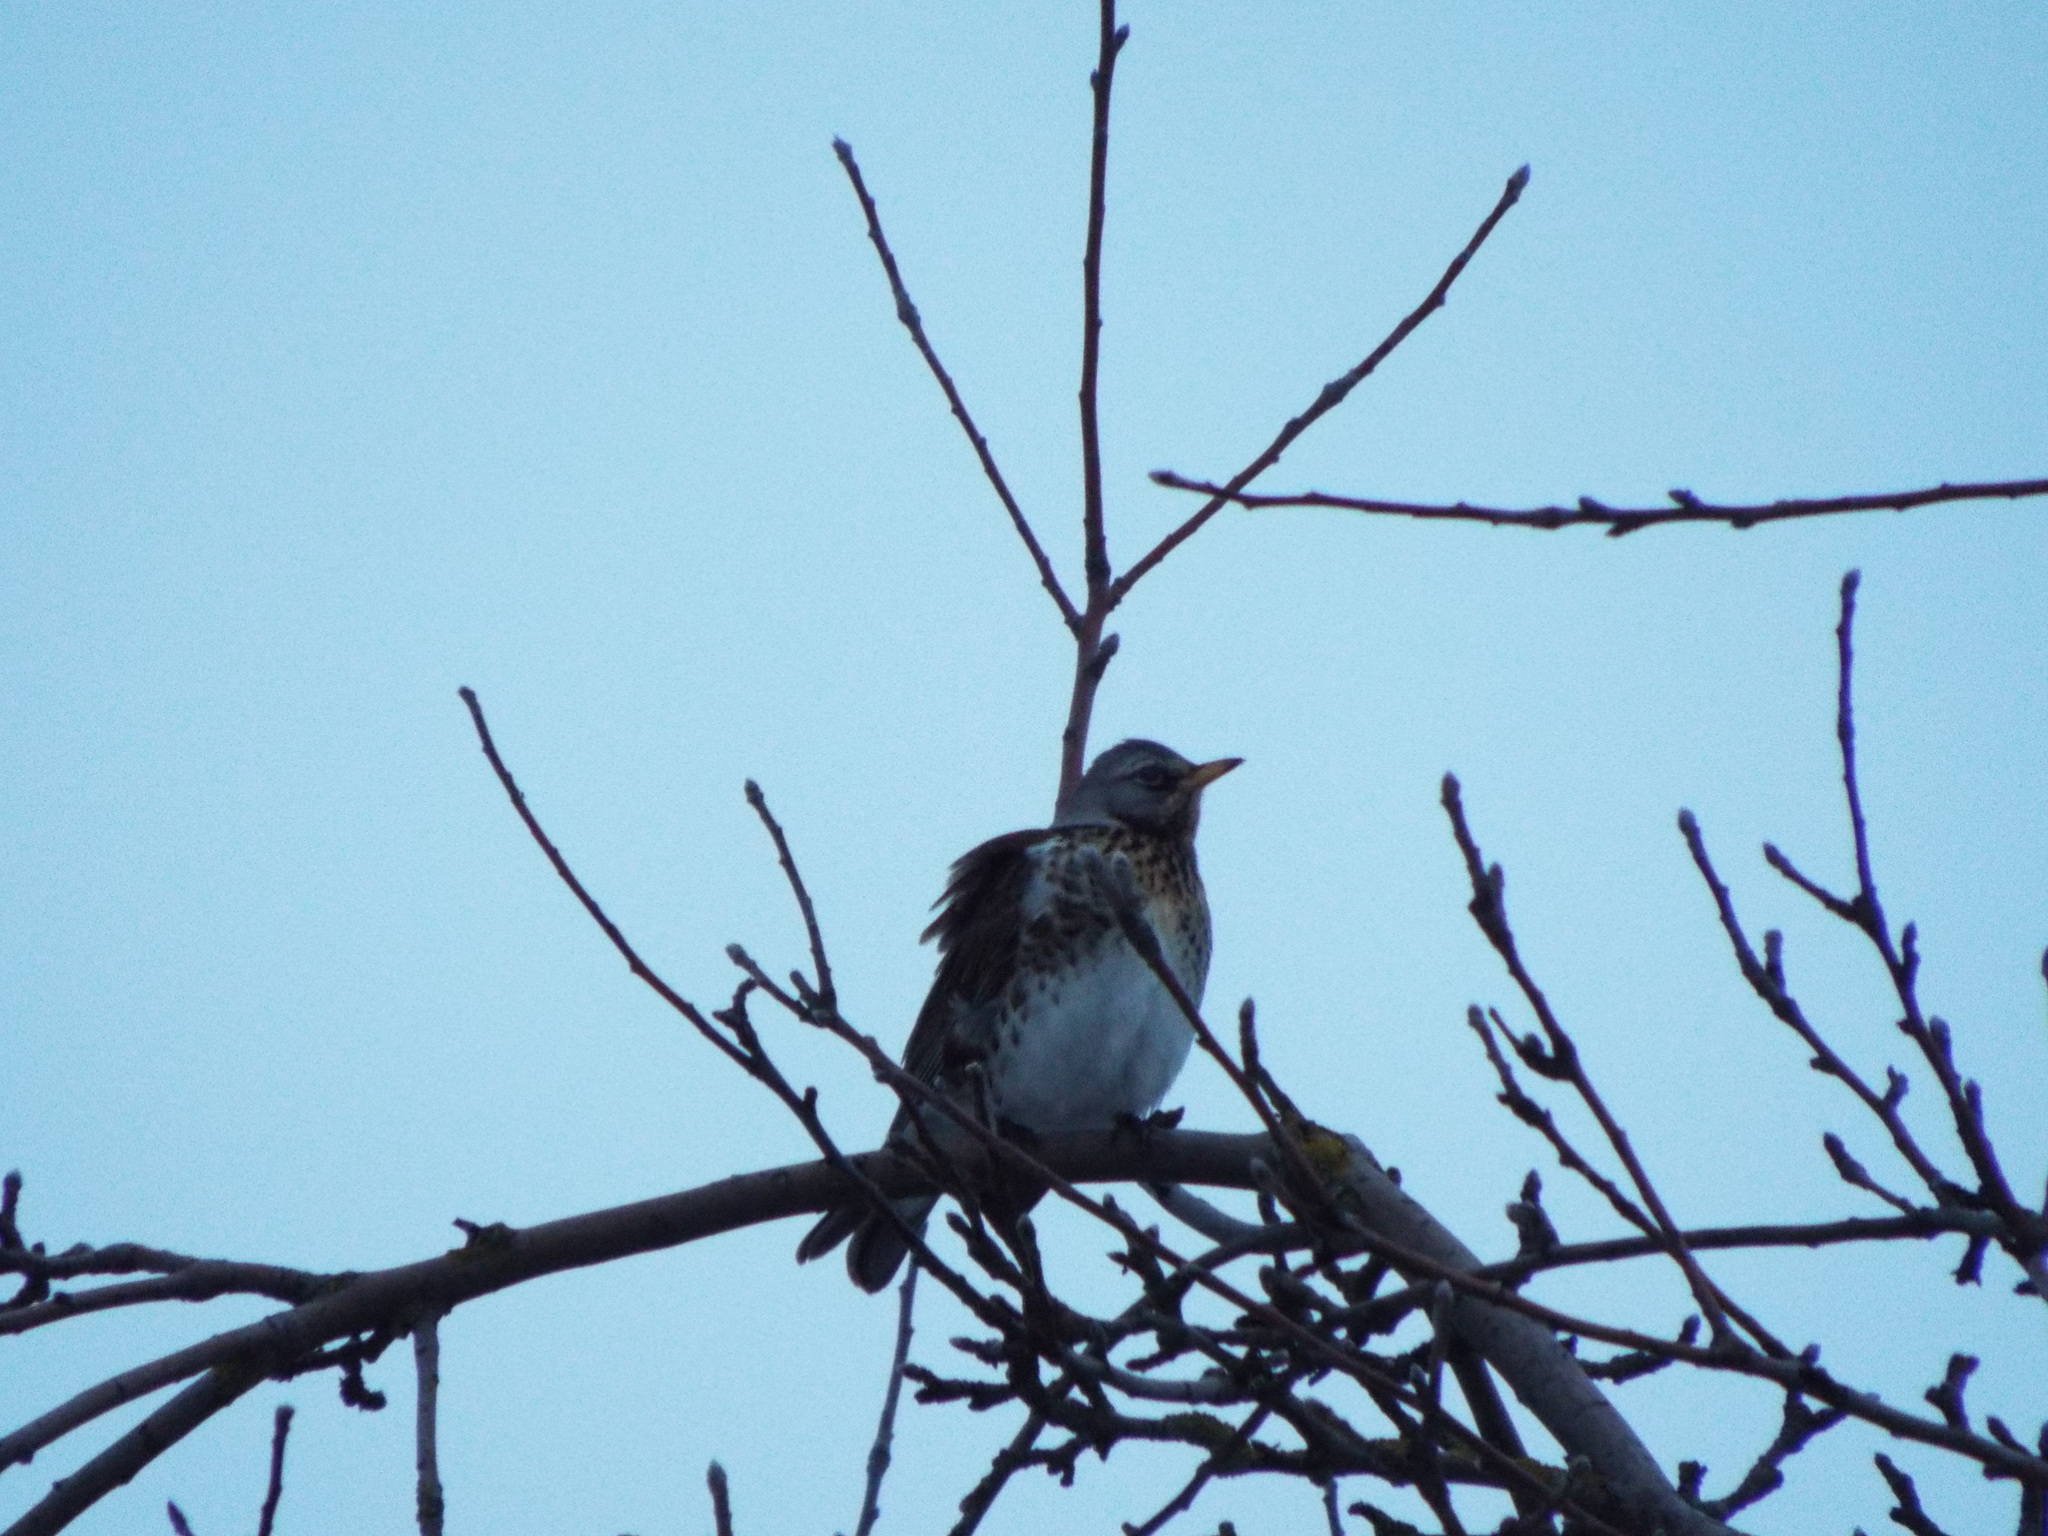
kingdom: Animalia
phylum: Chordata
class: Aves
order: Passeriformes
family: Turdidae
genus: Turdus
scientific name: Turdus pilaris
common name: Fieldfare
